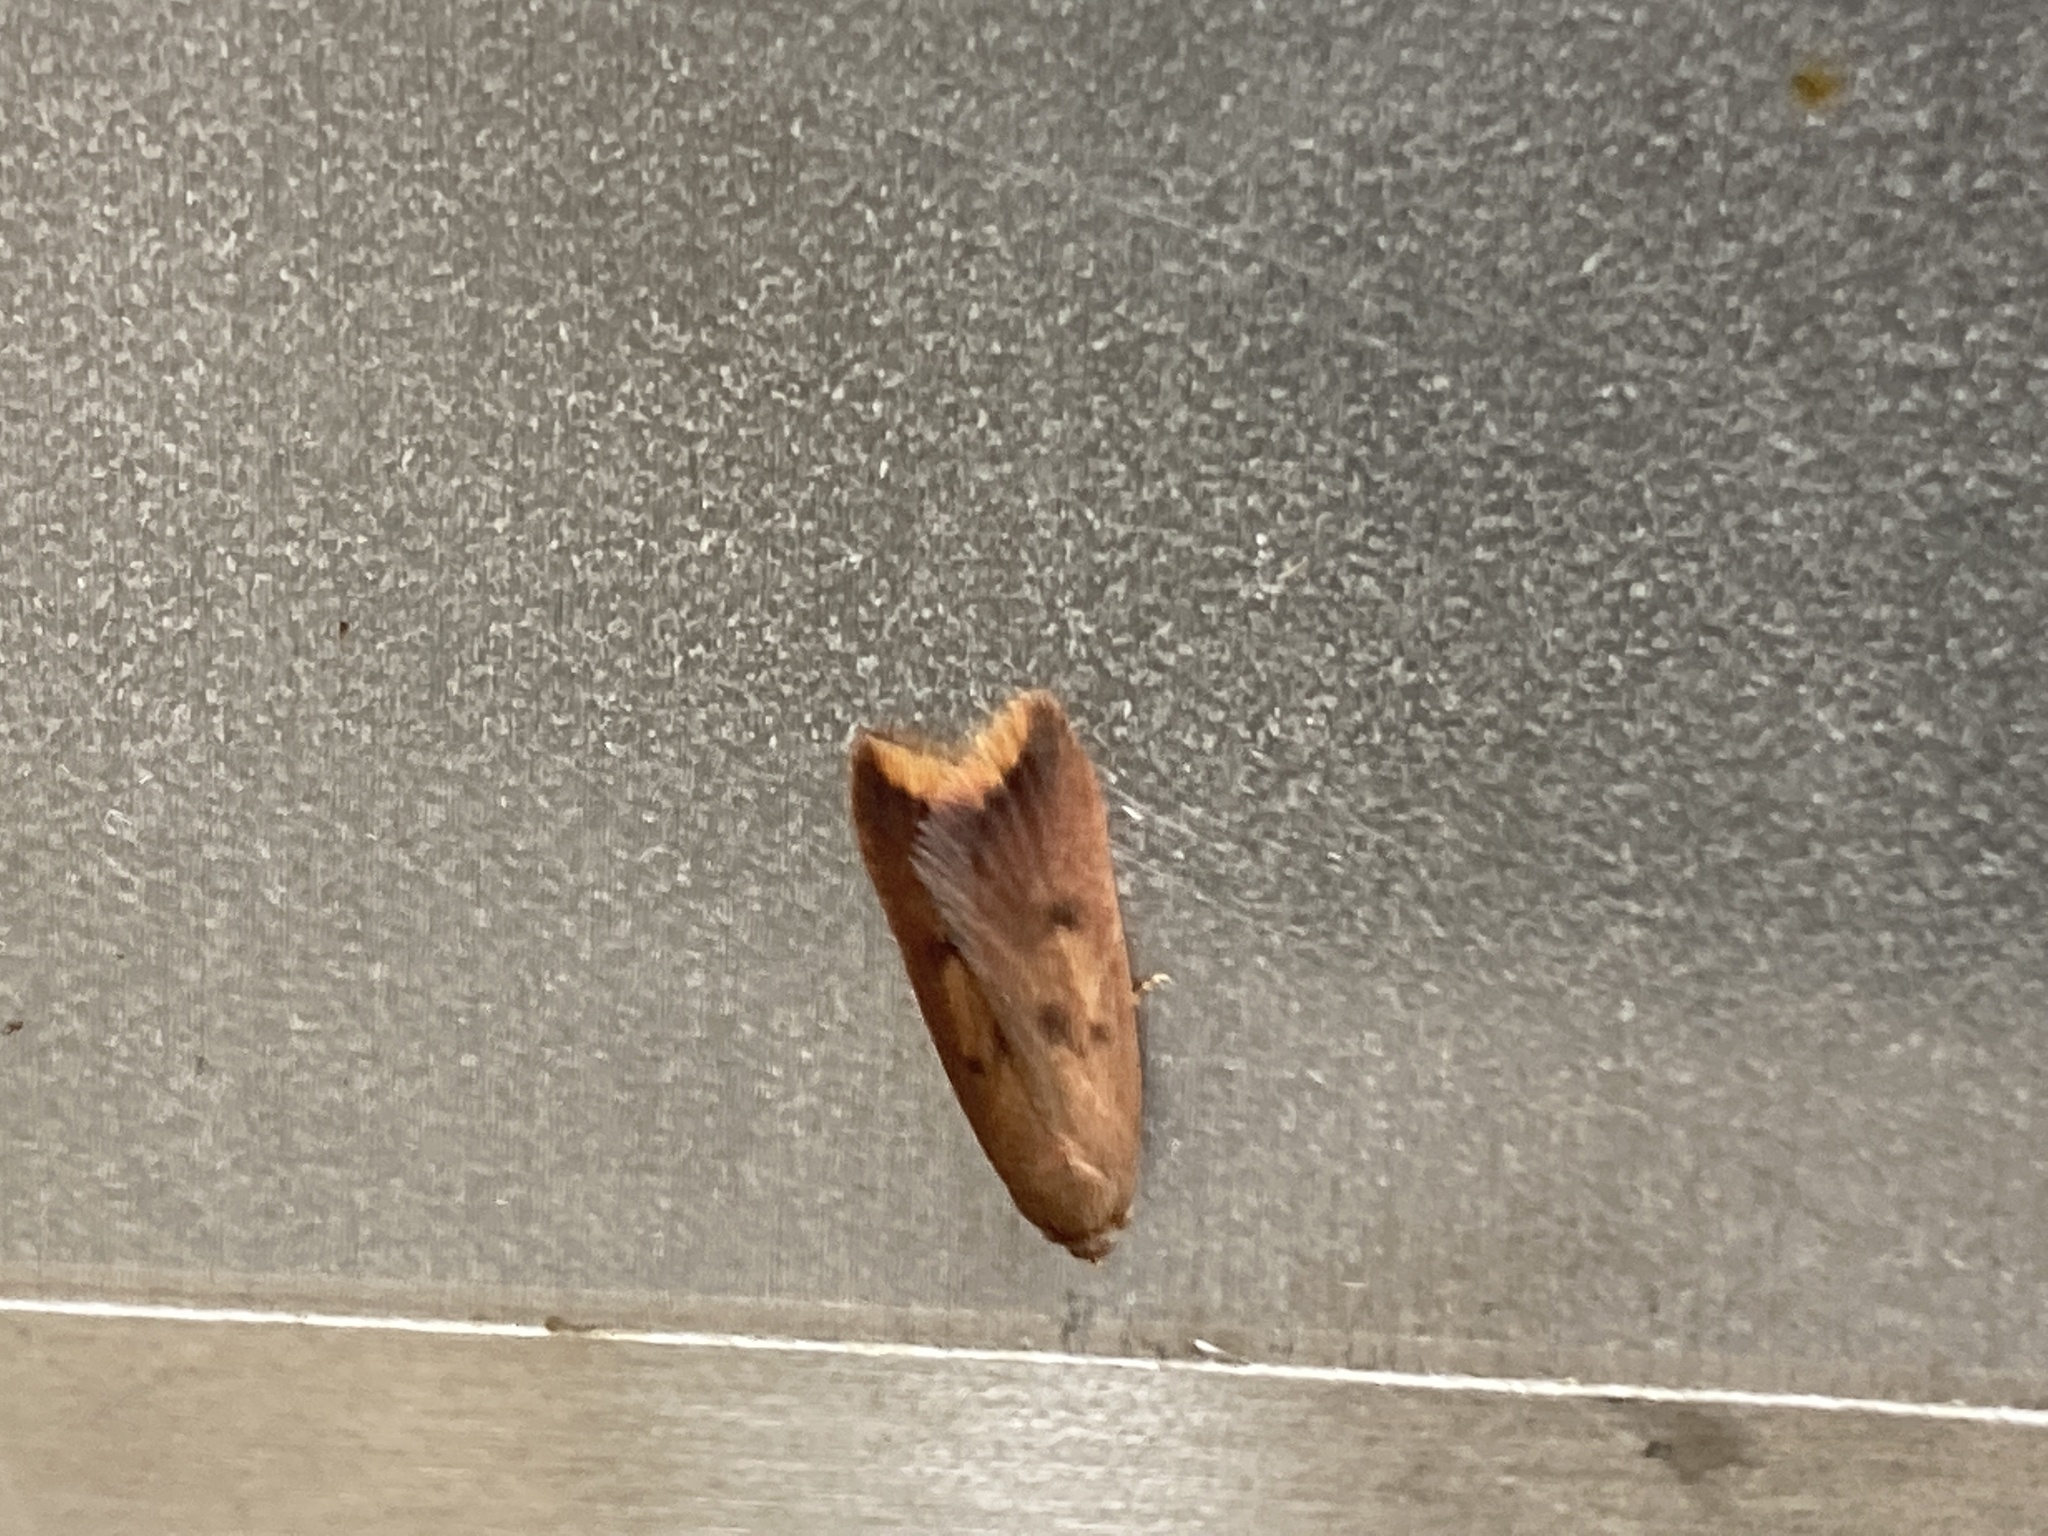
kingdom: Animalia
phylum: Arthropoda
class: Insecta
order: Lepidoptera
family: Oecophoridae
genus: Tachystola
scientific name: Tachystola acroxantha
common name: Ruddy streak
